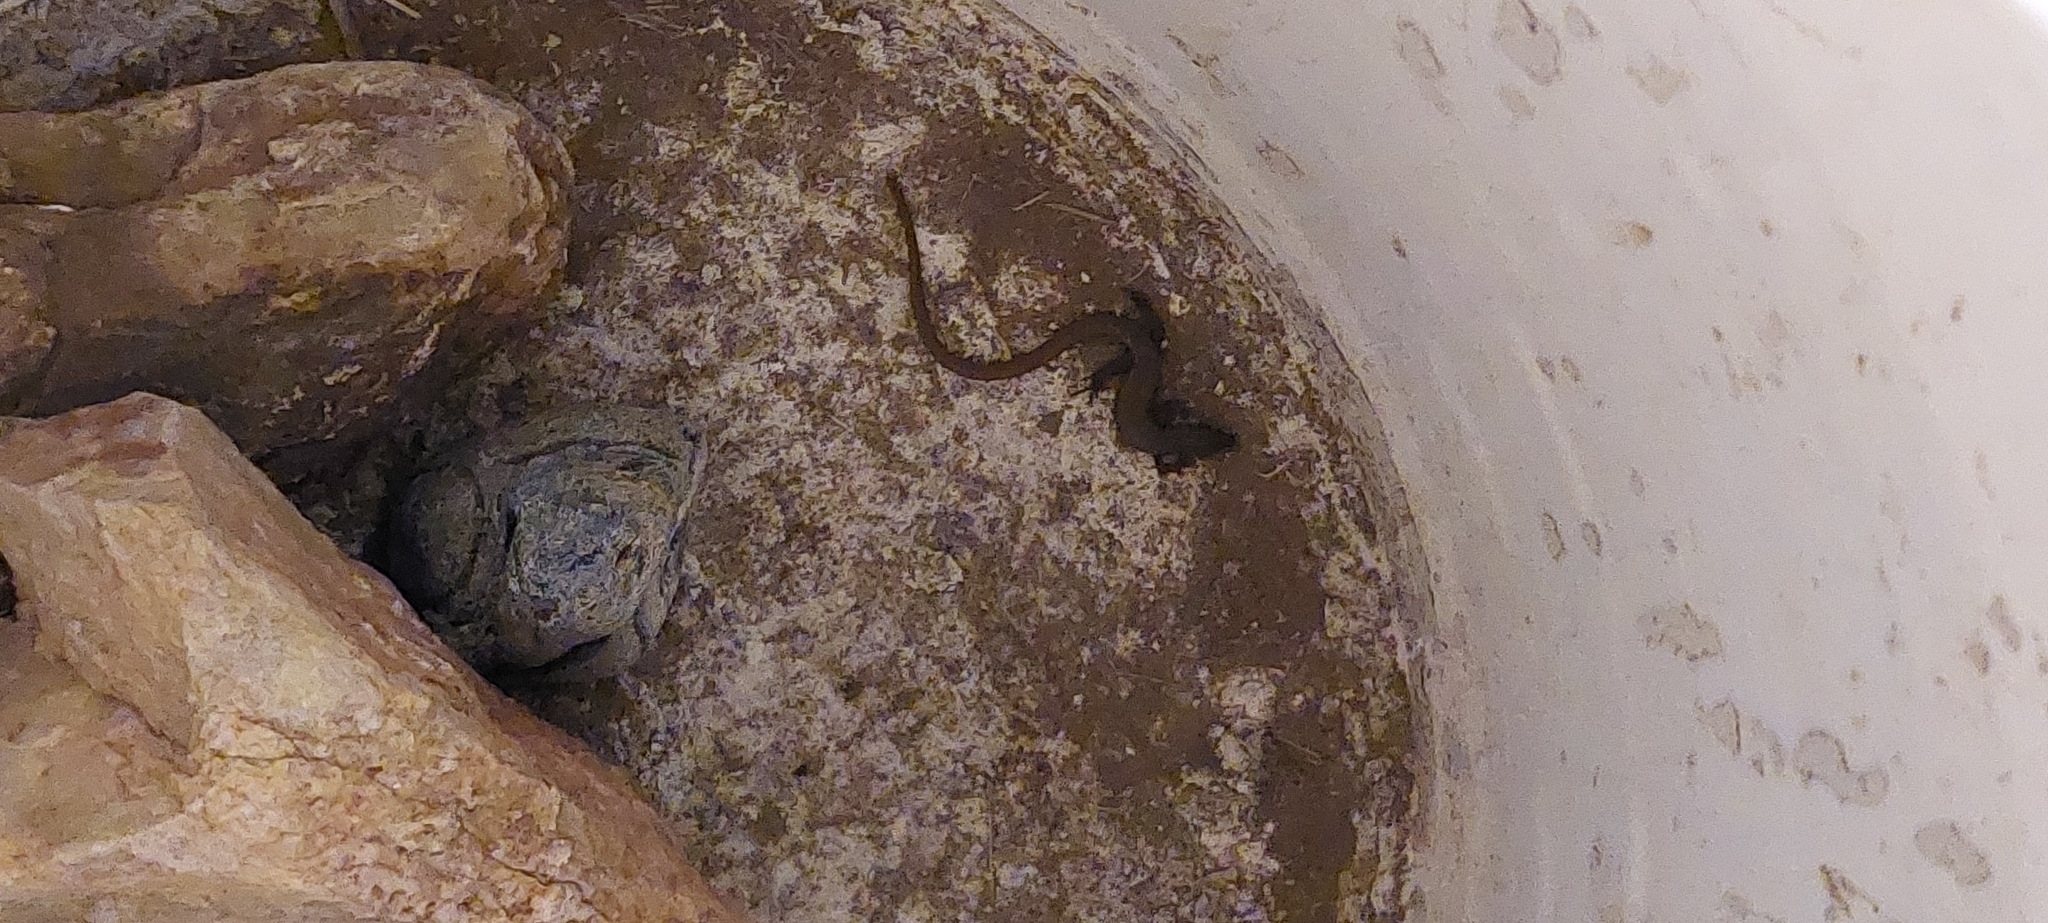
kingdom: Animalia
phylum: Chordata
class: Squamata
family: Gymnophthalmidae
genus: Cercosaura
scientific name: Cercosaura schreibersii
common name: Schreibers' many-fingered teiid
